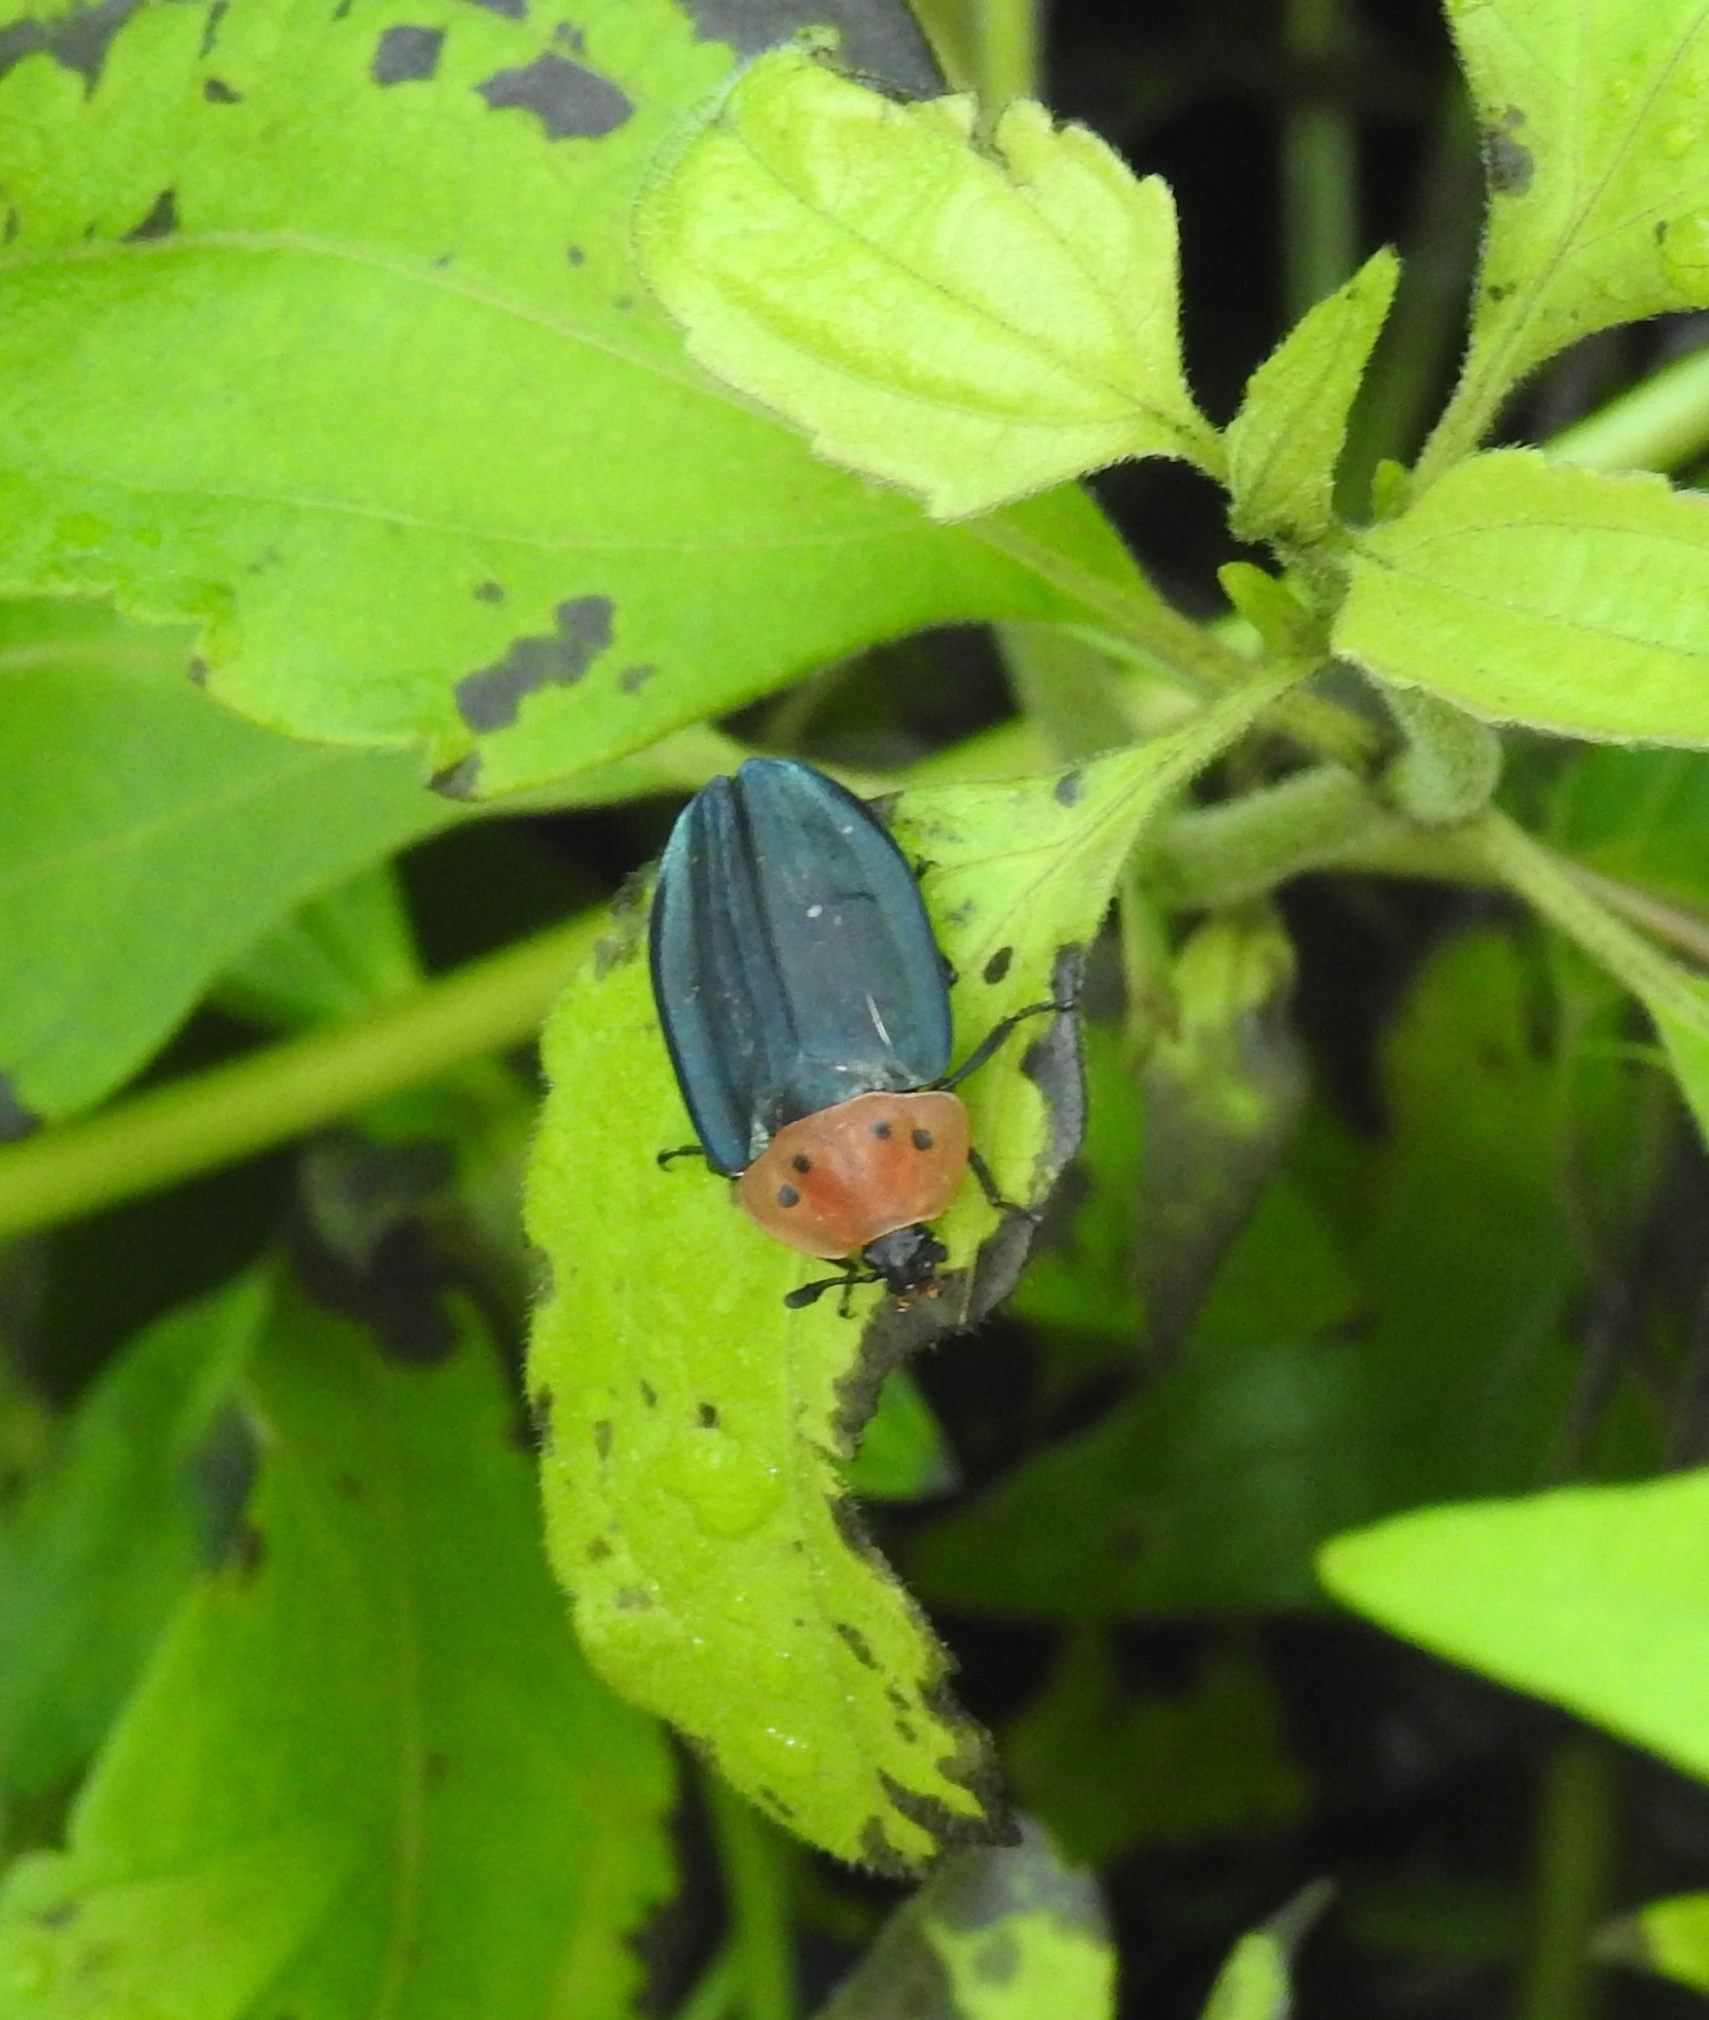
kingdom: Animalia
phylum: Arthropoda
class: Insecta
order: Coleoptera
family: Staphylinidae
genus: Necrophila
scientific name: Necrophila rufithorax
